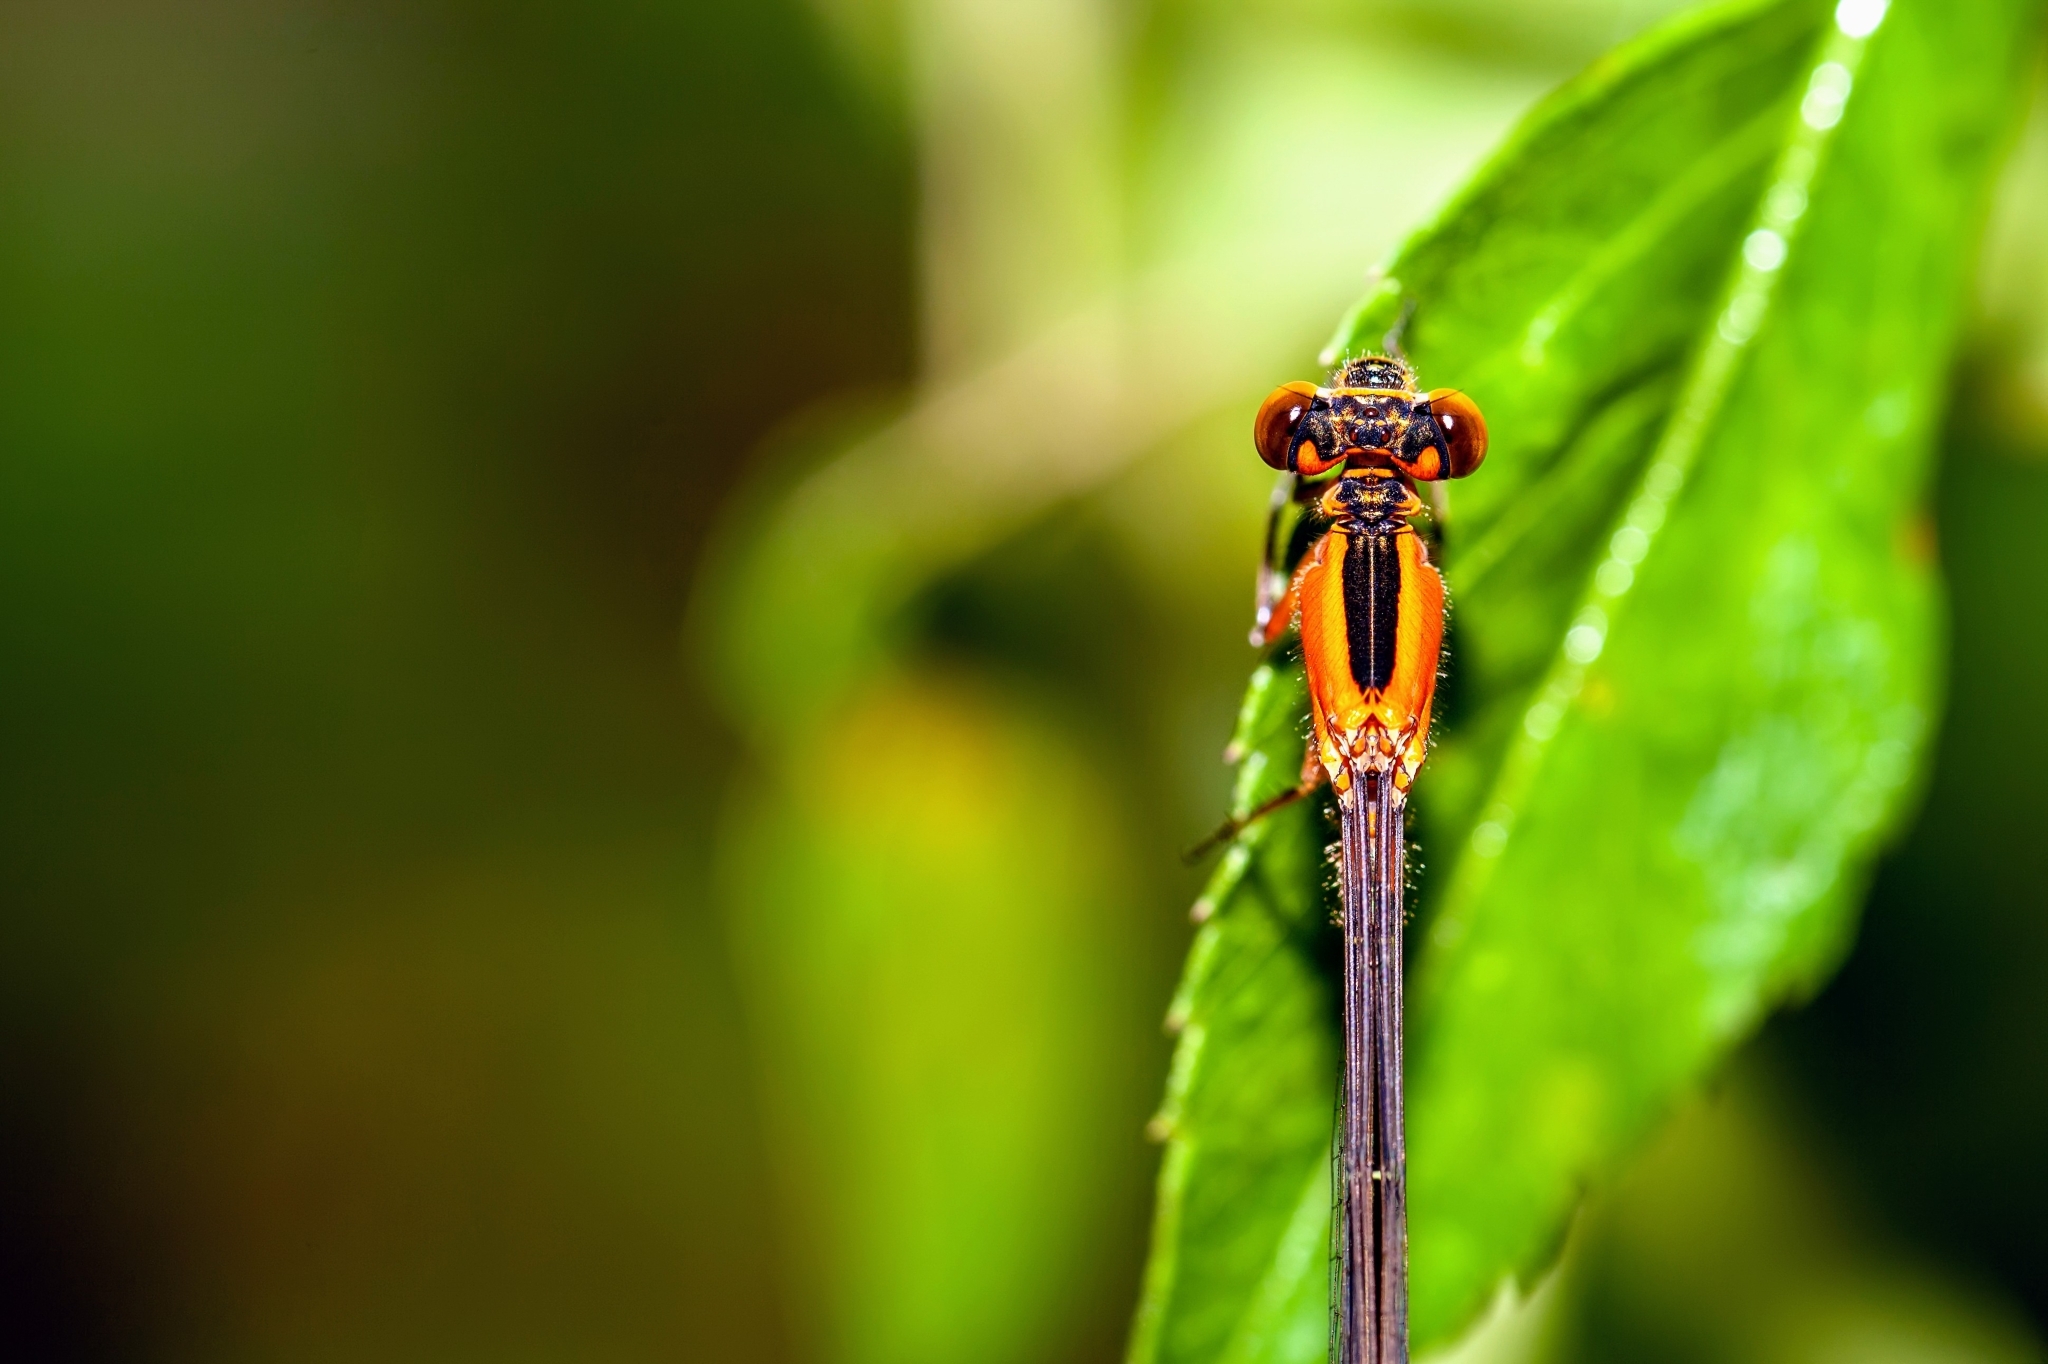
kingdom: Animalia
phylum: Arthropoda
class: Insecta
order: Odonata
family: Coenagrionidae
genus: Ischnura
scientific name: Ischnura ramburii
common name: Rambur's forktail
